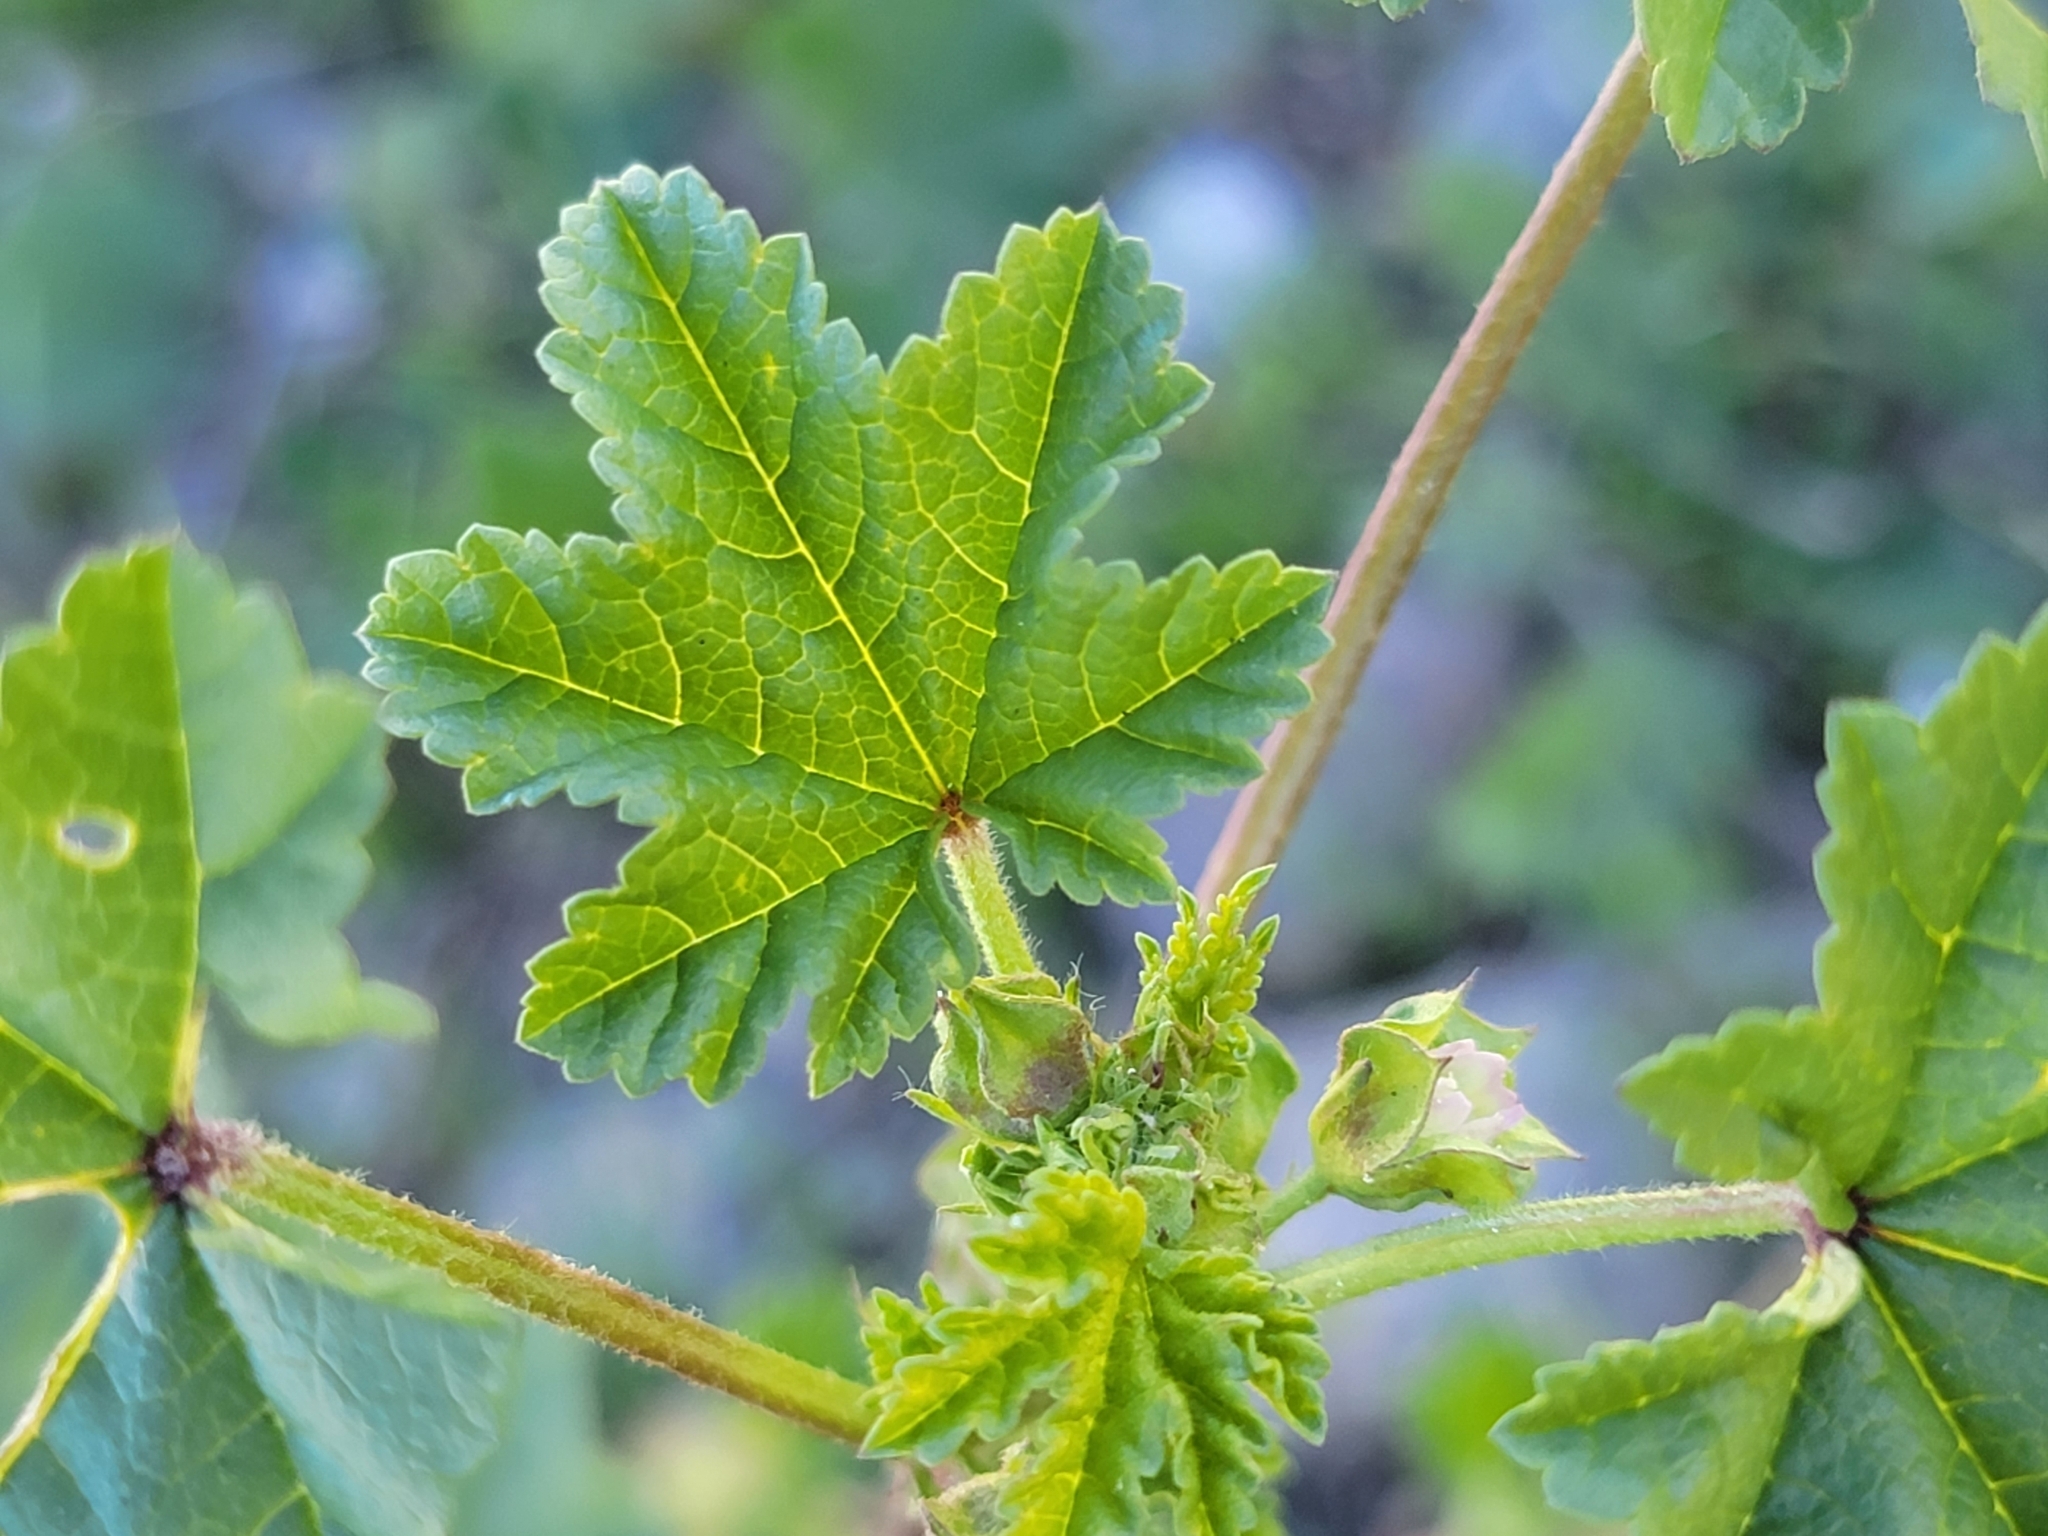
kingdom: Plantae
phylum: Tracheophyta
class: Magnoliopsida
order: Malvales
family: Malvaceae
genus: Malva
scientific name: Malva parviflora
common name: Least mallow
